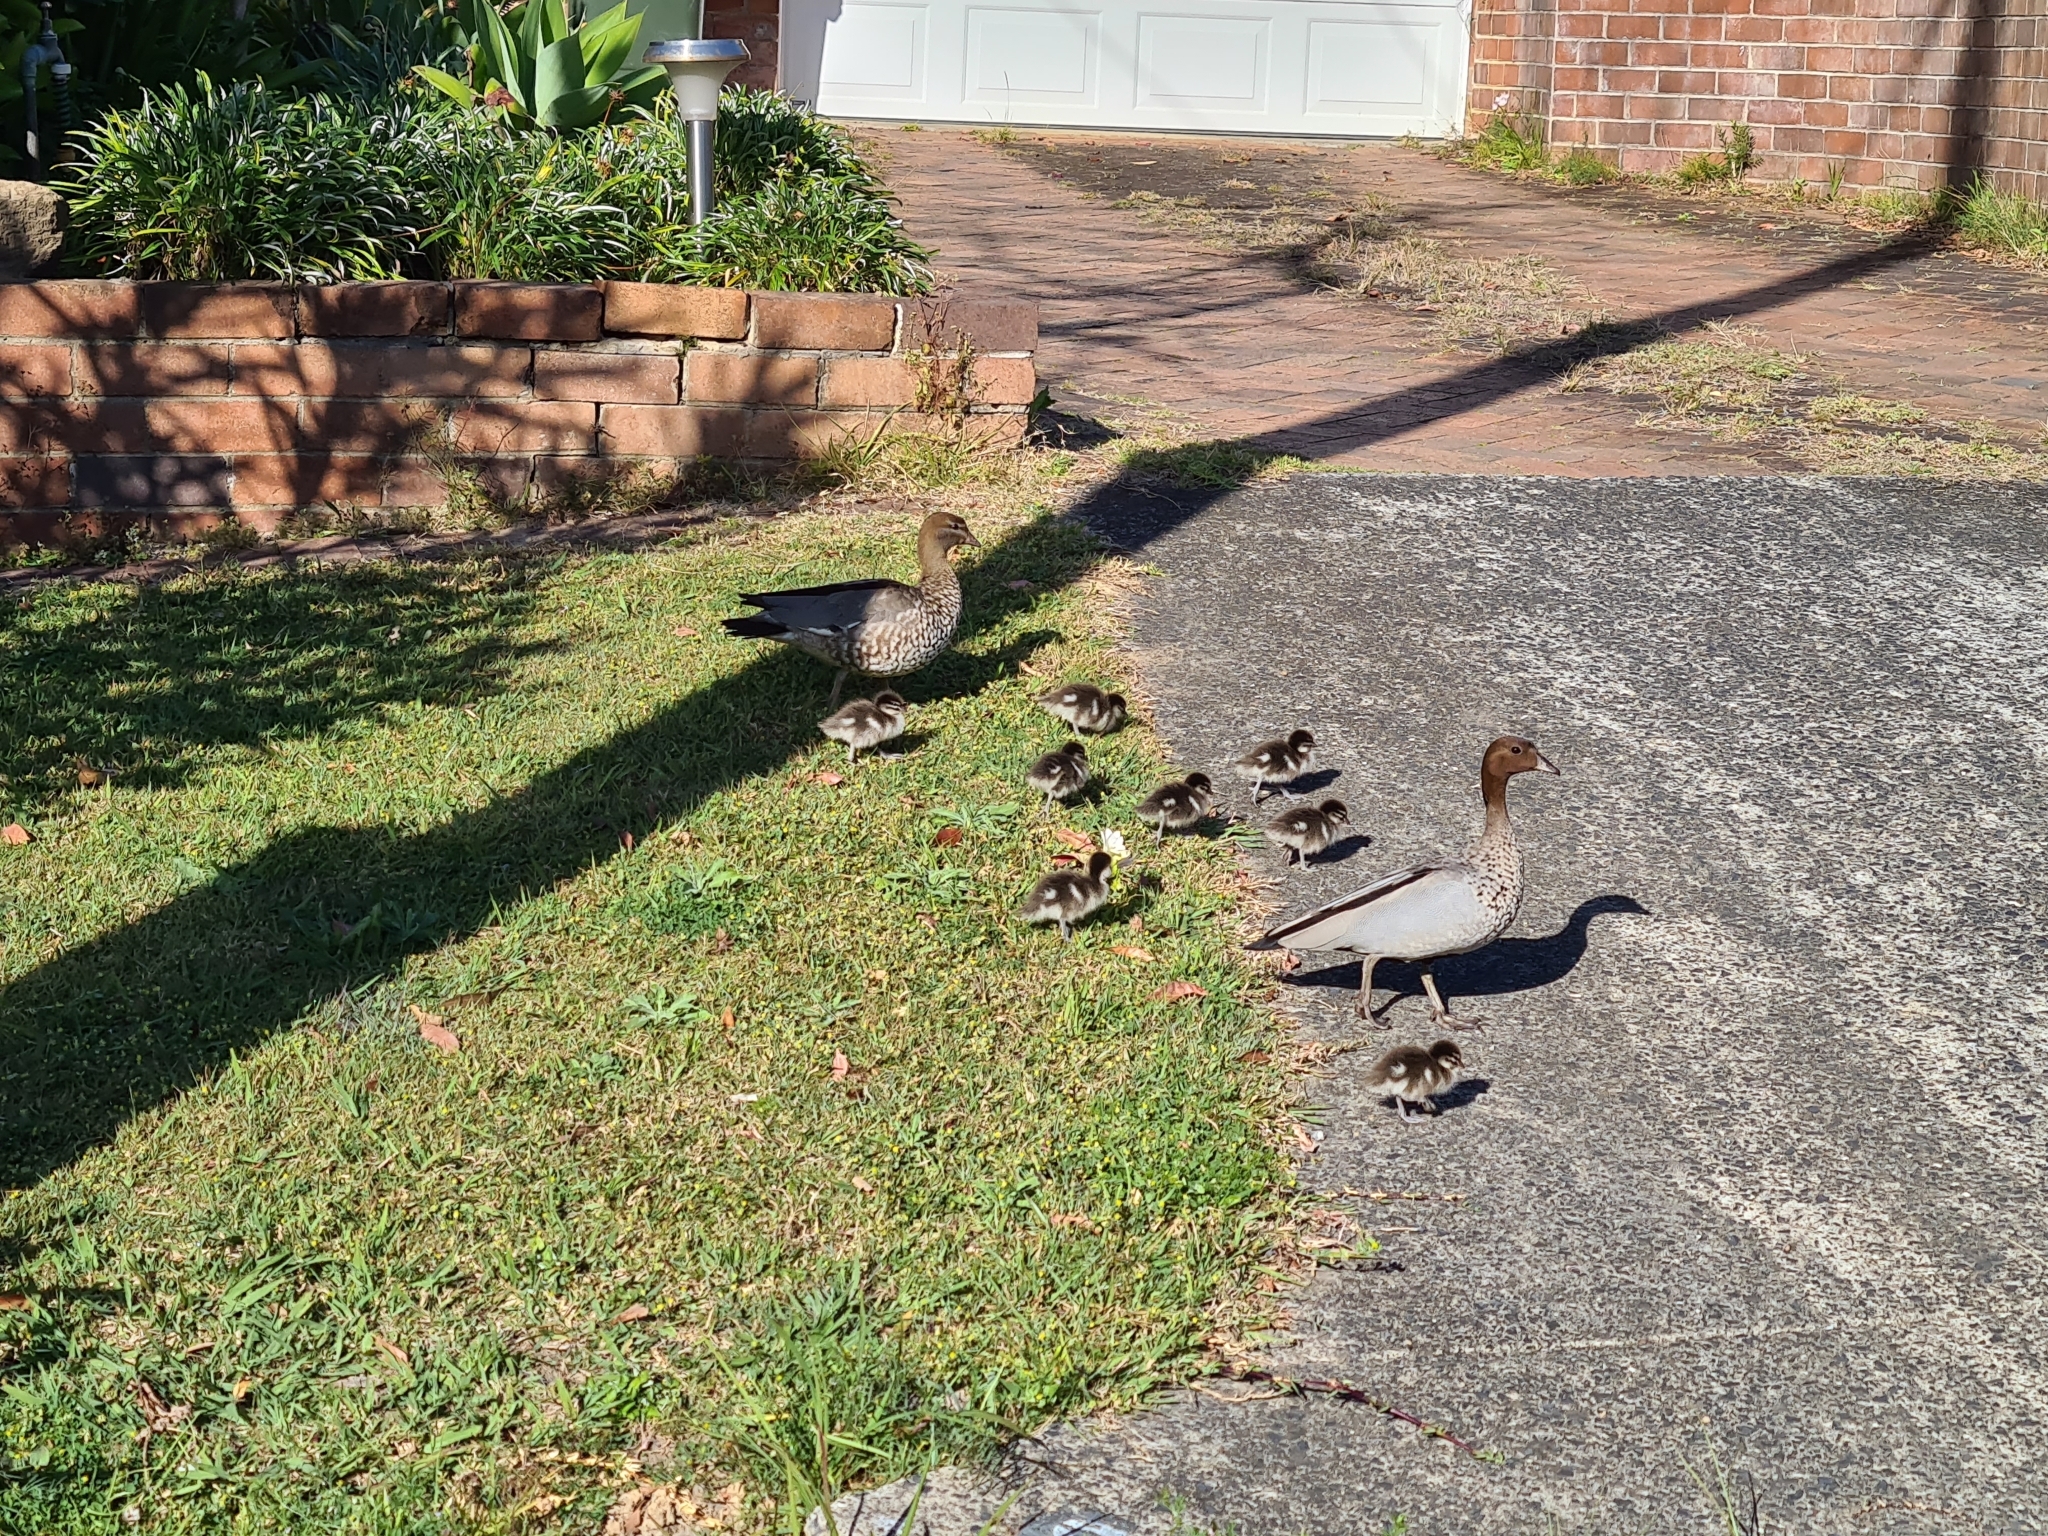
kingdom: Animalia
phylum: Chordata
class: Aves
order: Anseriformes
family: Anatidae
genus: Chenonetta
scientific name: Chenonetta jubata
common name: Maned duck
